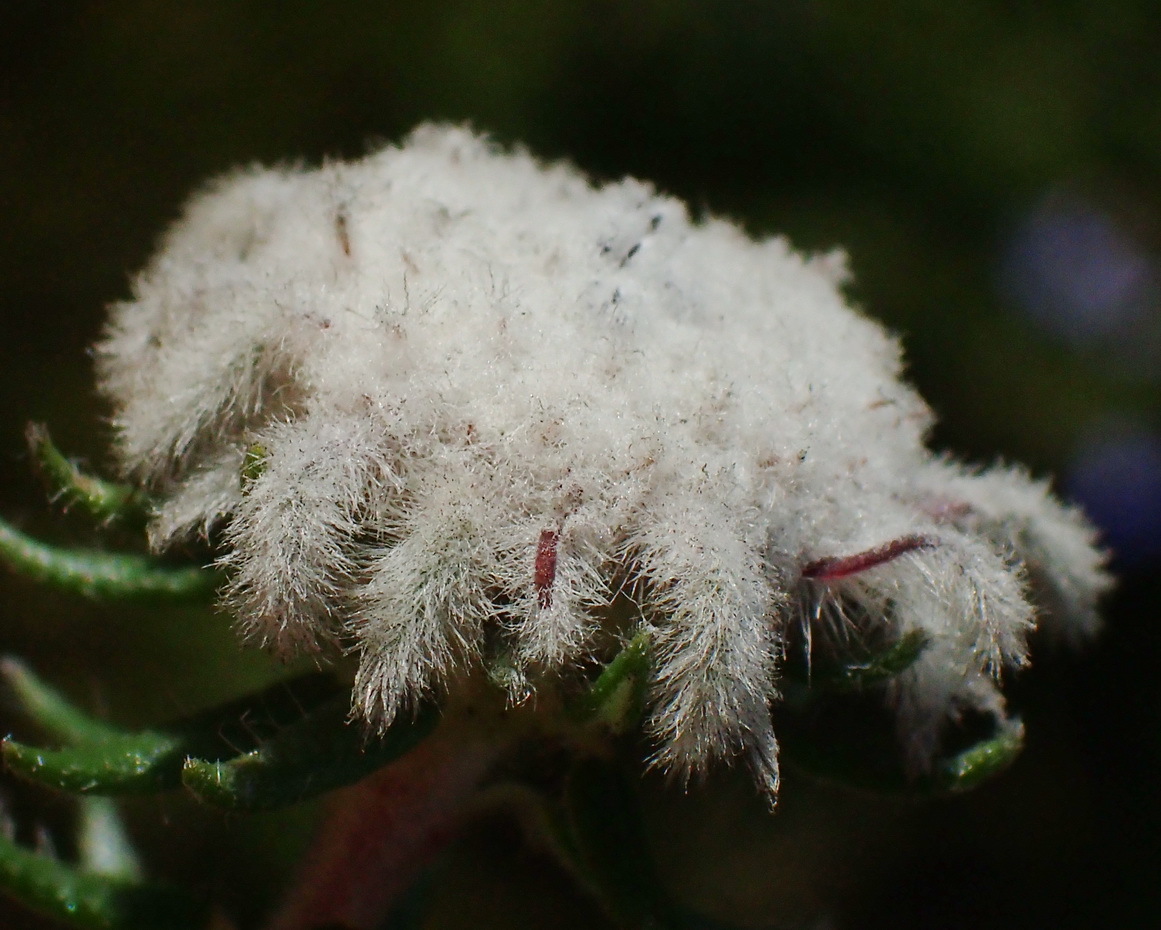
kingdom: Plantae
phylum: Tracheophyta
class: Magnoliopsida
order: Rosales
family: Rhamnaceae
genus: Phylica
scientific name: Phylica curvifolia
